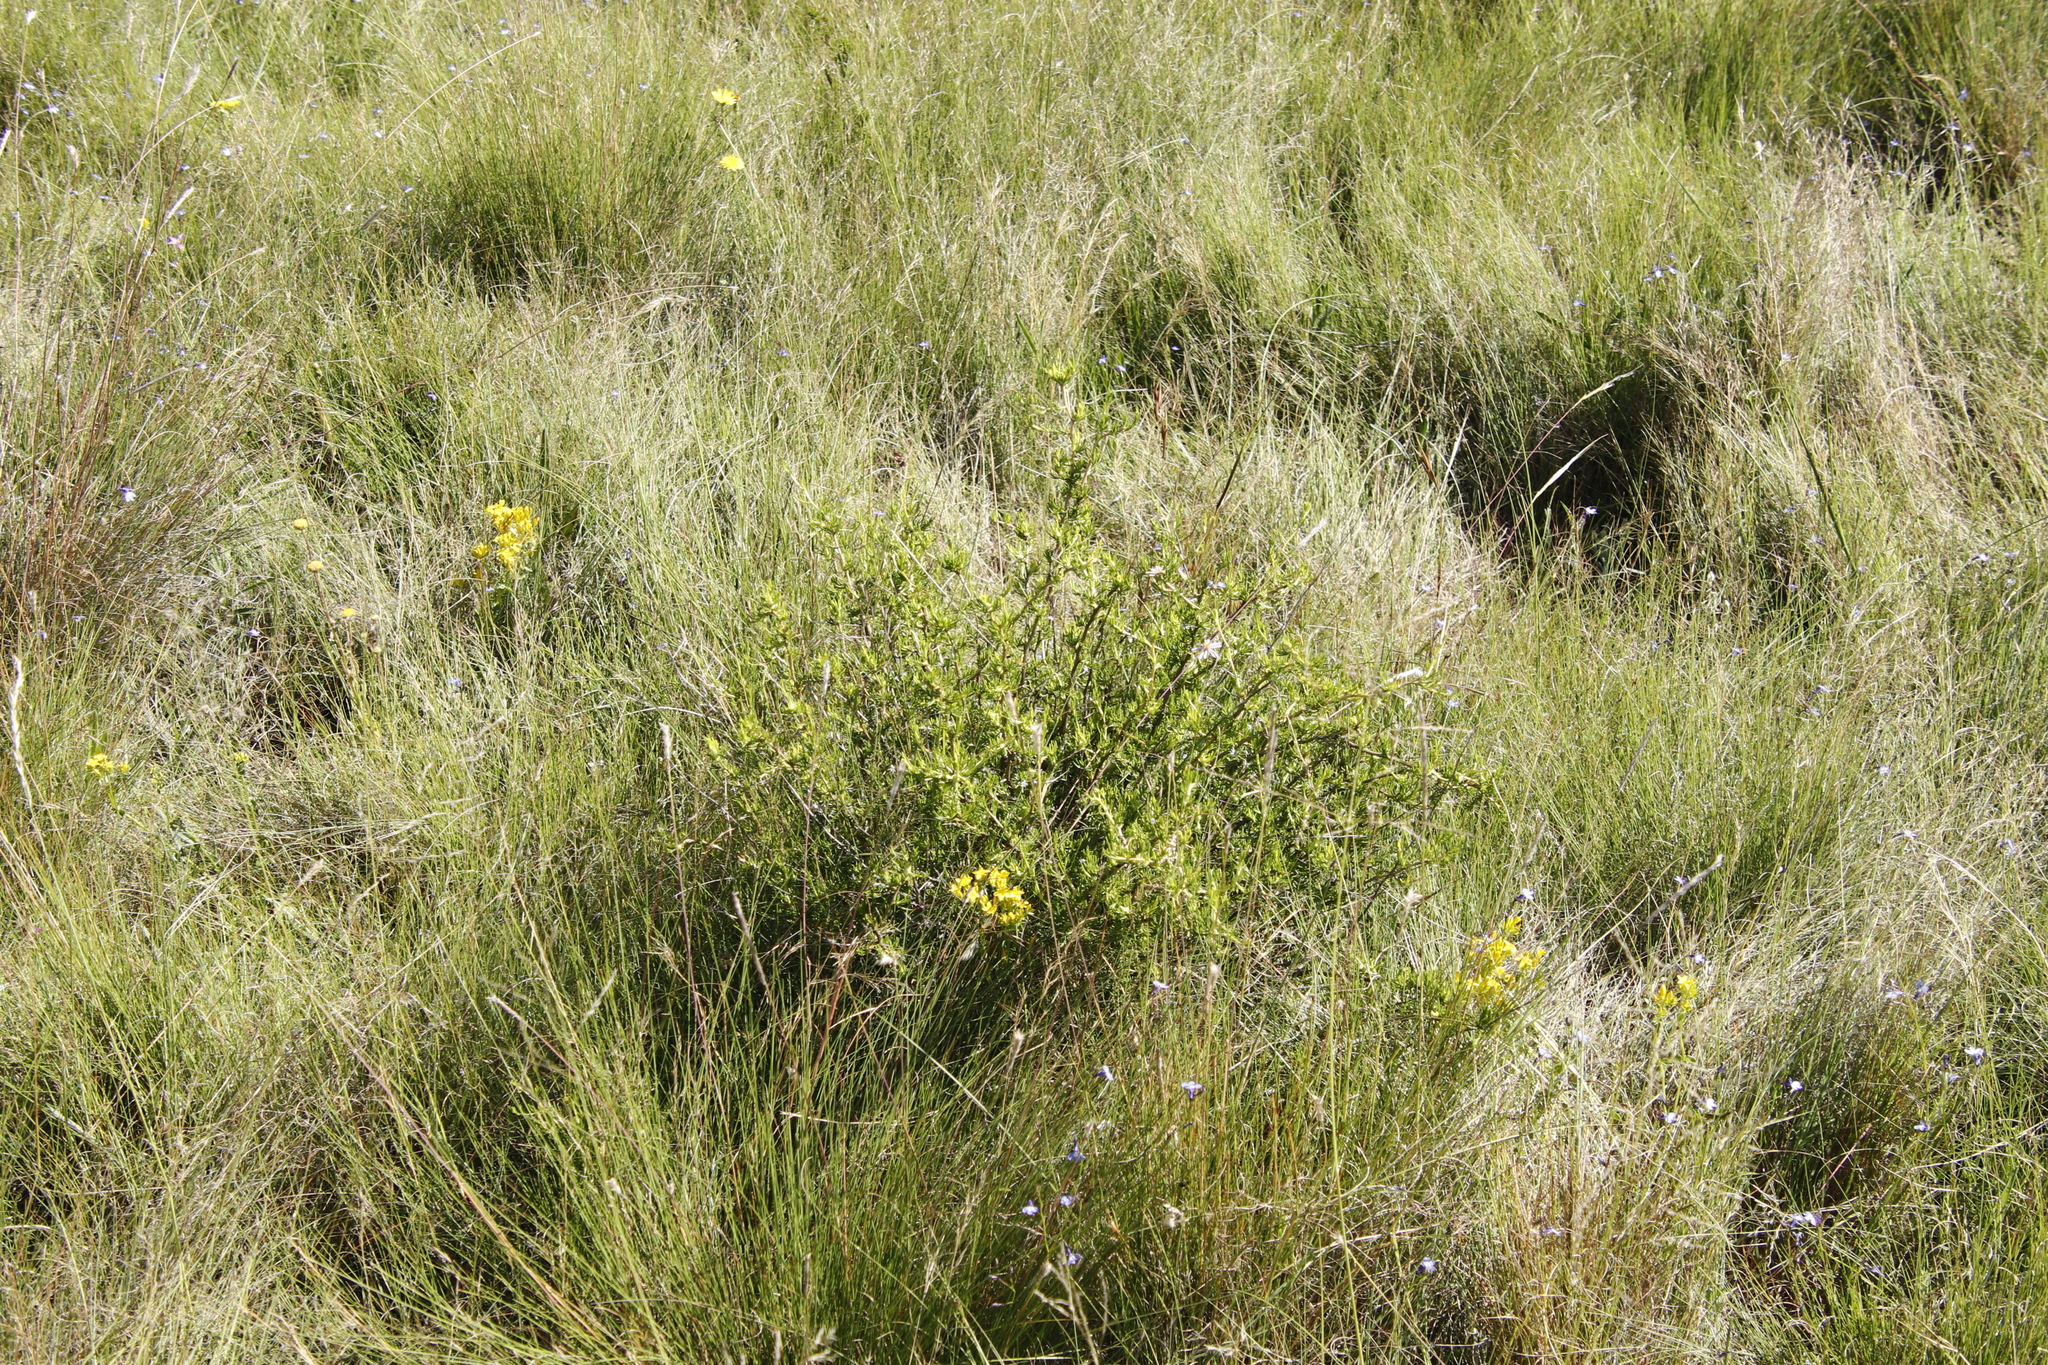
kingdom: Plantae
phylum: Tracheophyta
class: Magnoliopsida
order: Asterales
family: Asteraceae
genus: Felicia
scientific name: Felicia filifolia
